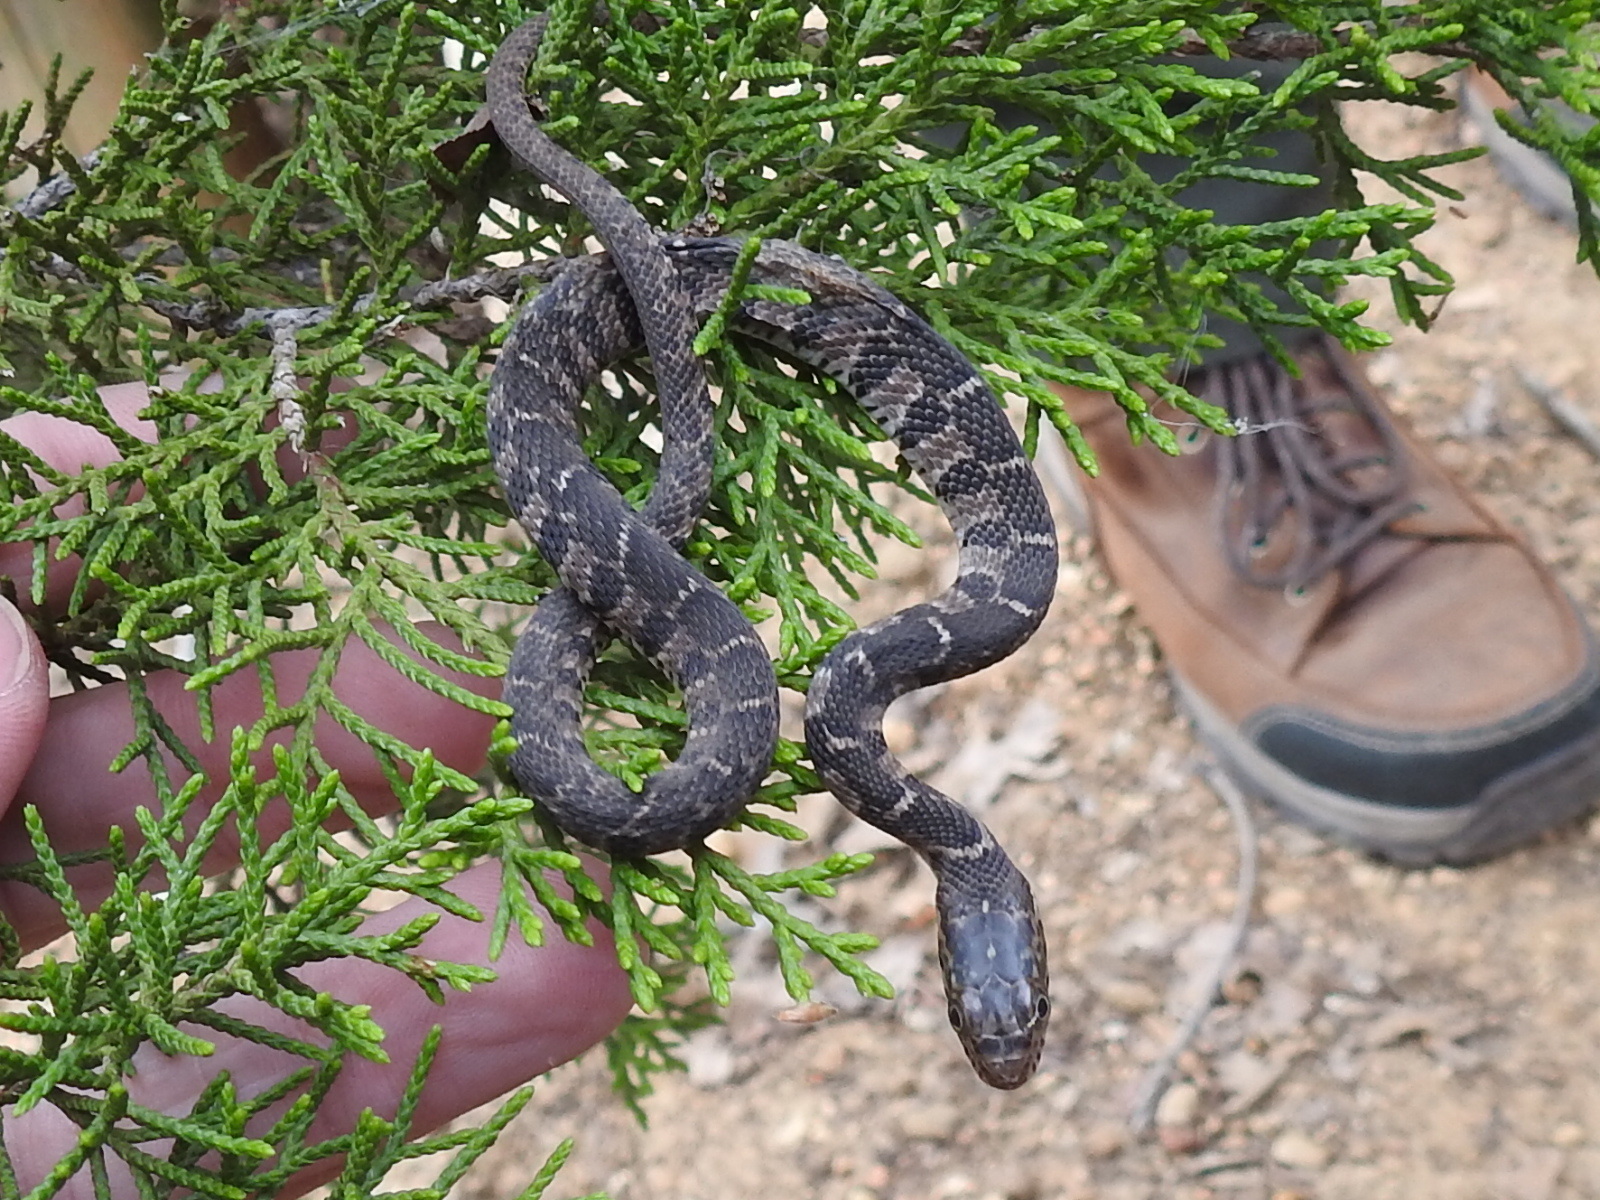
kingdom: Animalia
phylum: Chordata
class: Squamata
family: Colubridae
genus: Nerodia
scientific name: Nerodia erythrogaster
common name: Plainbelly water snake
